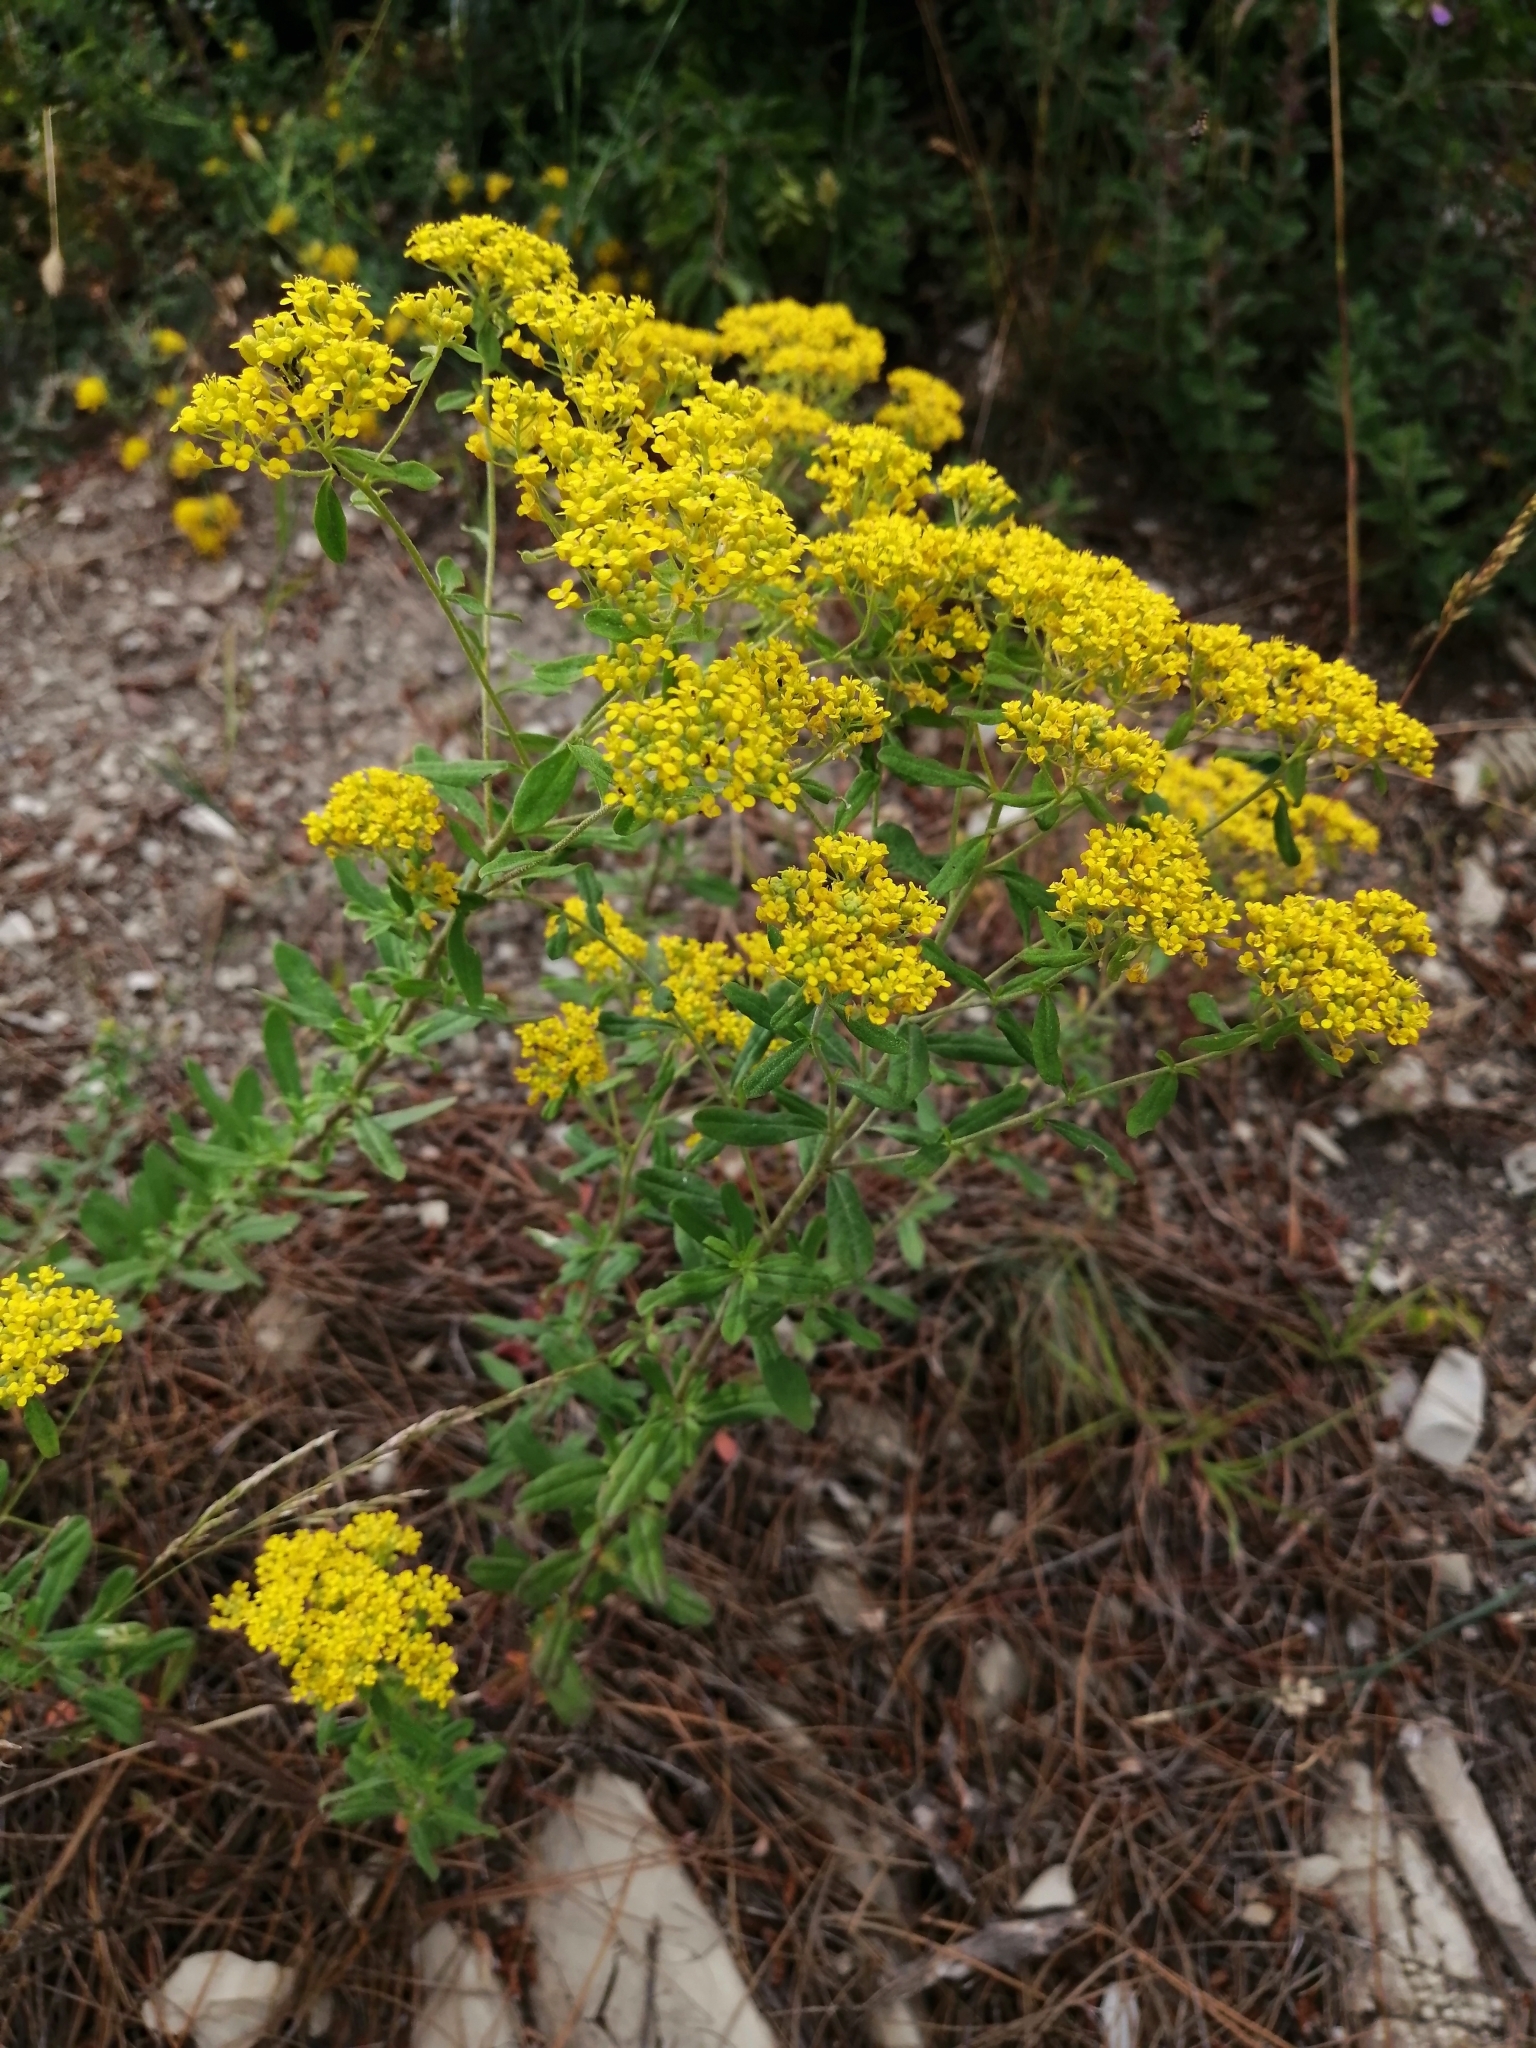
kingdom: Plantae
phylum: Tracheophyta
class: Magnoliopsida
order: Brassicales
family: Brassicaceae
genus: Odontarrhena
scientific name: Odontarrhena muralis
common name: Rock alyssum
